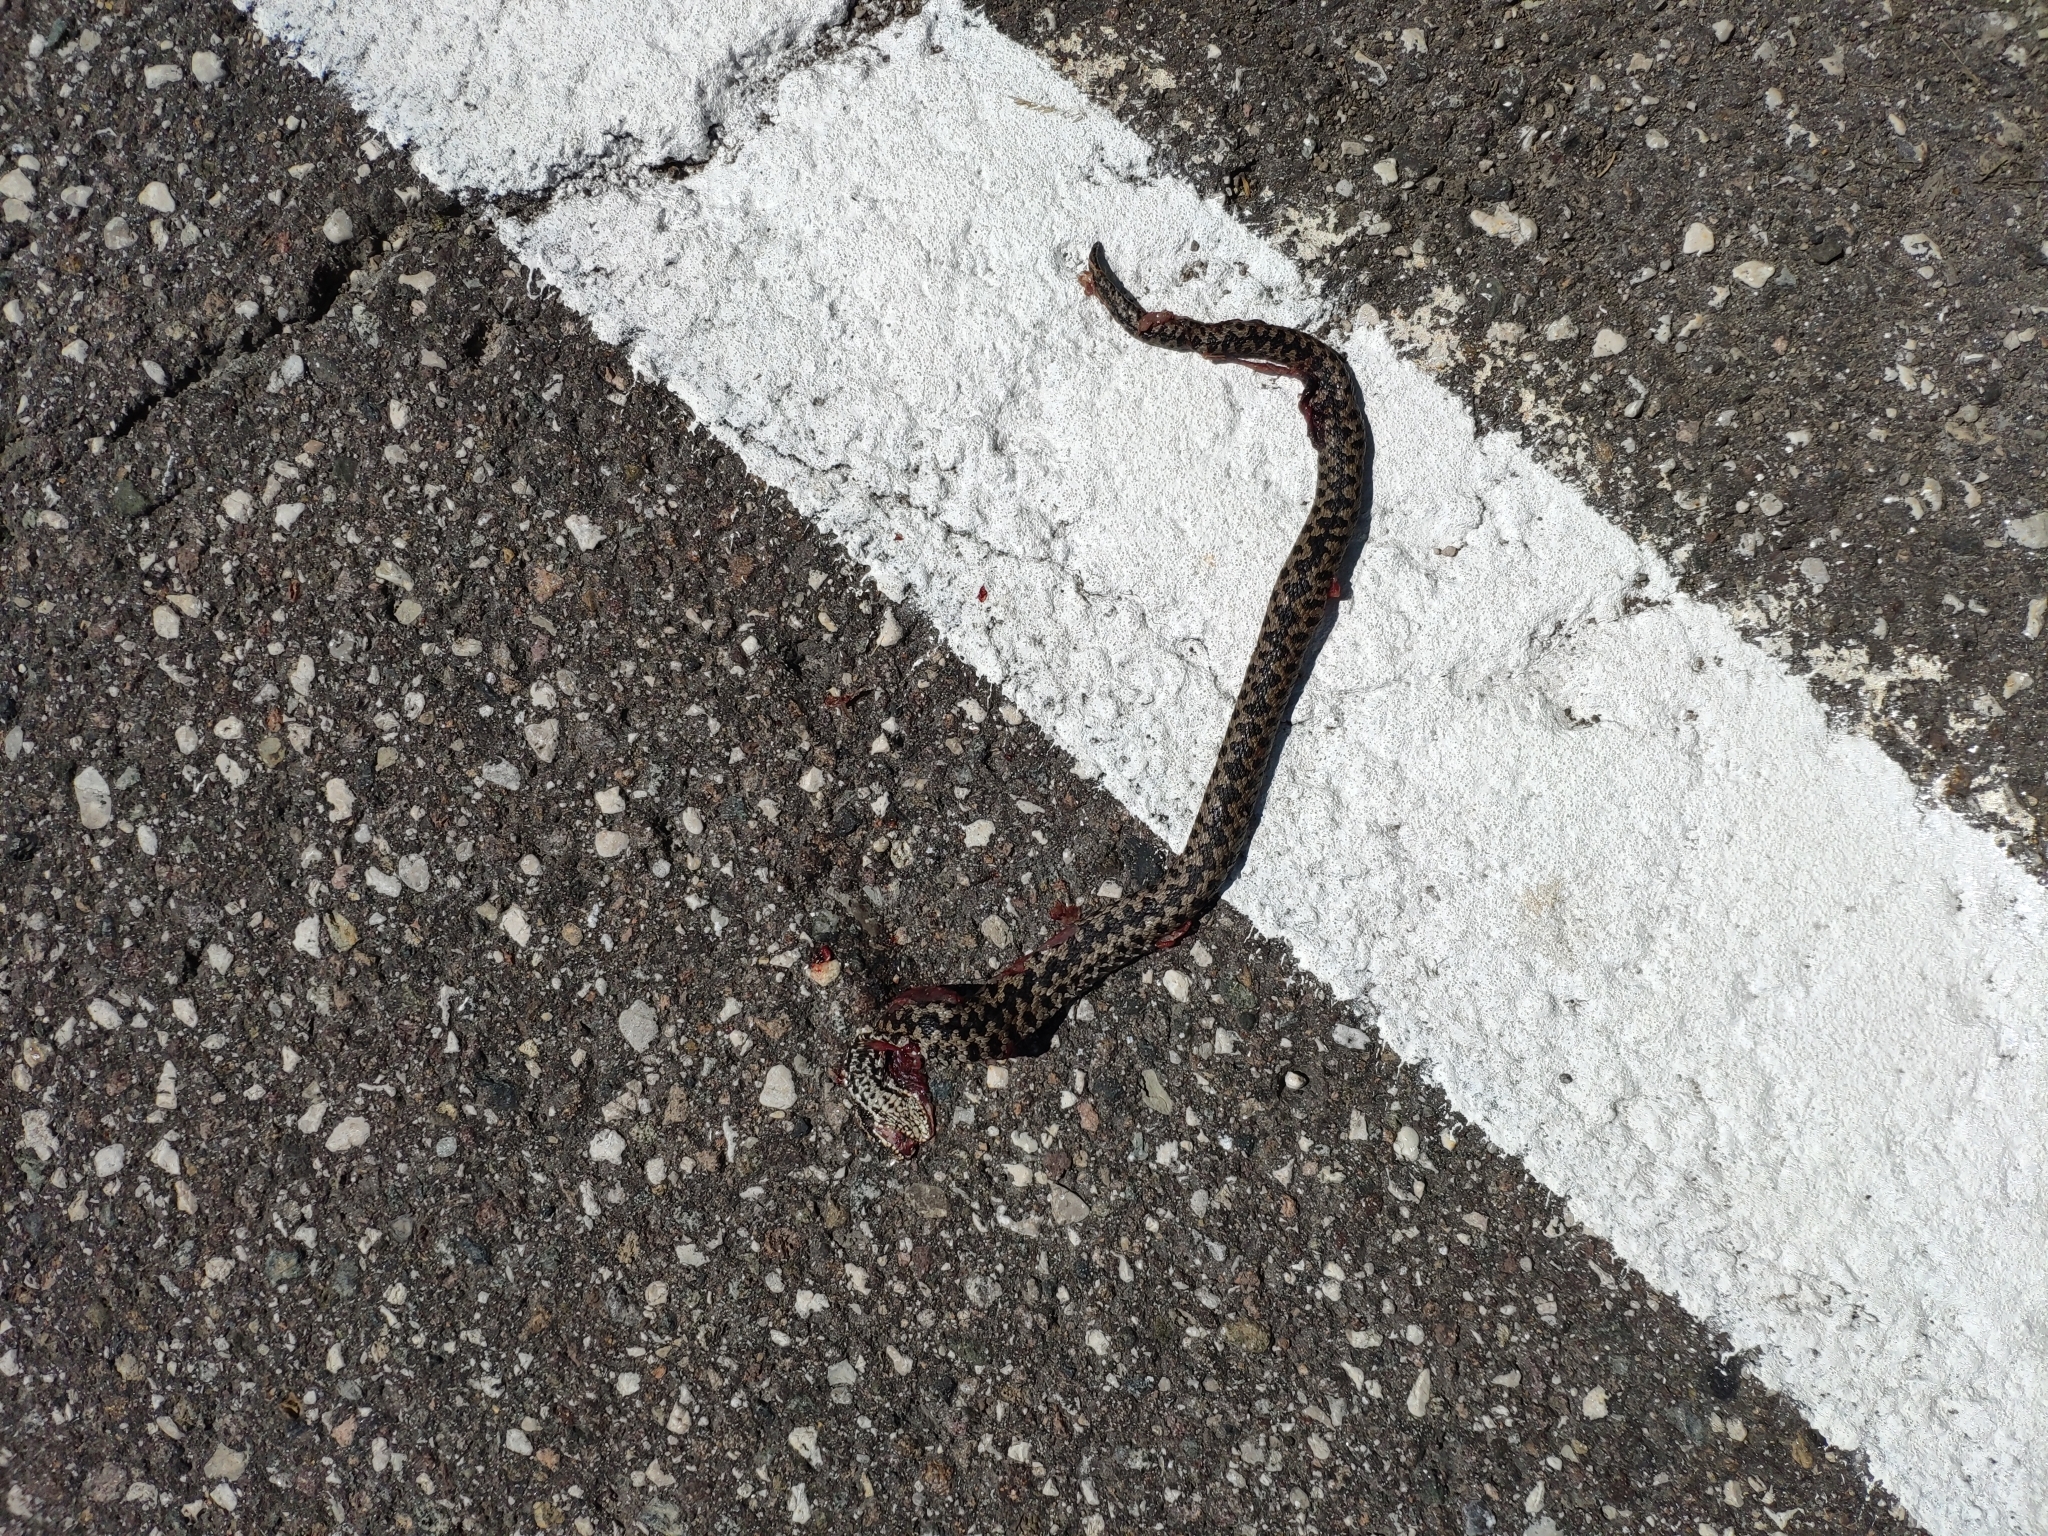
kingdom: Animalia
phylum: Chordata
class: Squamata
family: Viperidae
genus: Vipera
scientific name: Vipera berus
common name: Adder
